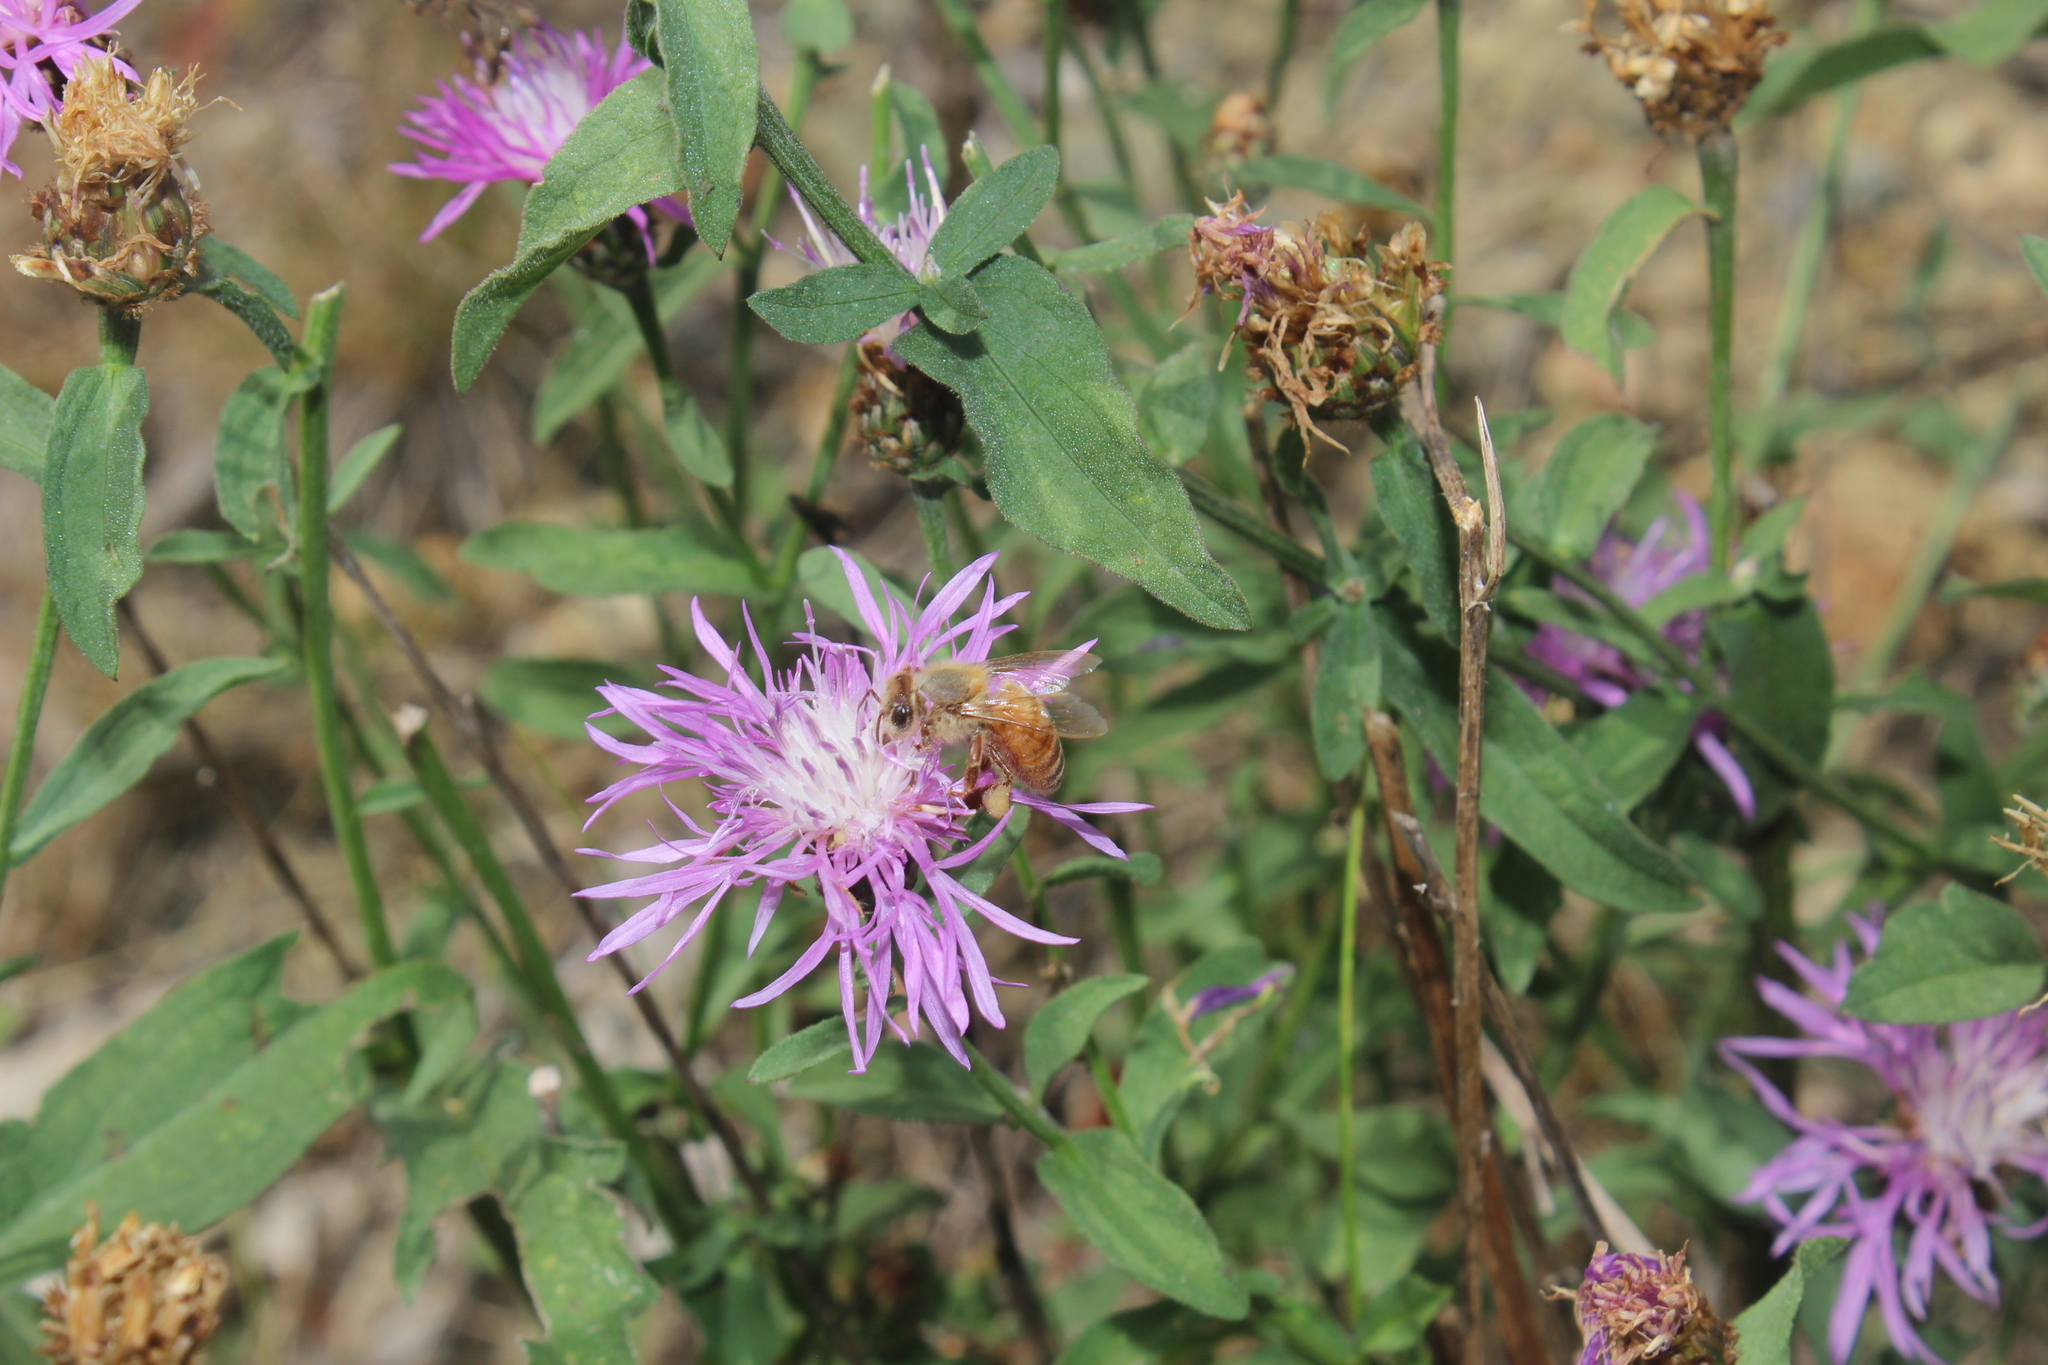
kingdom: Animalia
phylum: Arthropoda
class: Insecta
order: Hymenoptera
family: Apidae
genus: Apis
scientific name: Apis mellifera
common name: Honey bee
